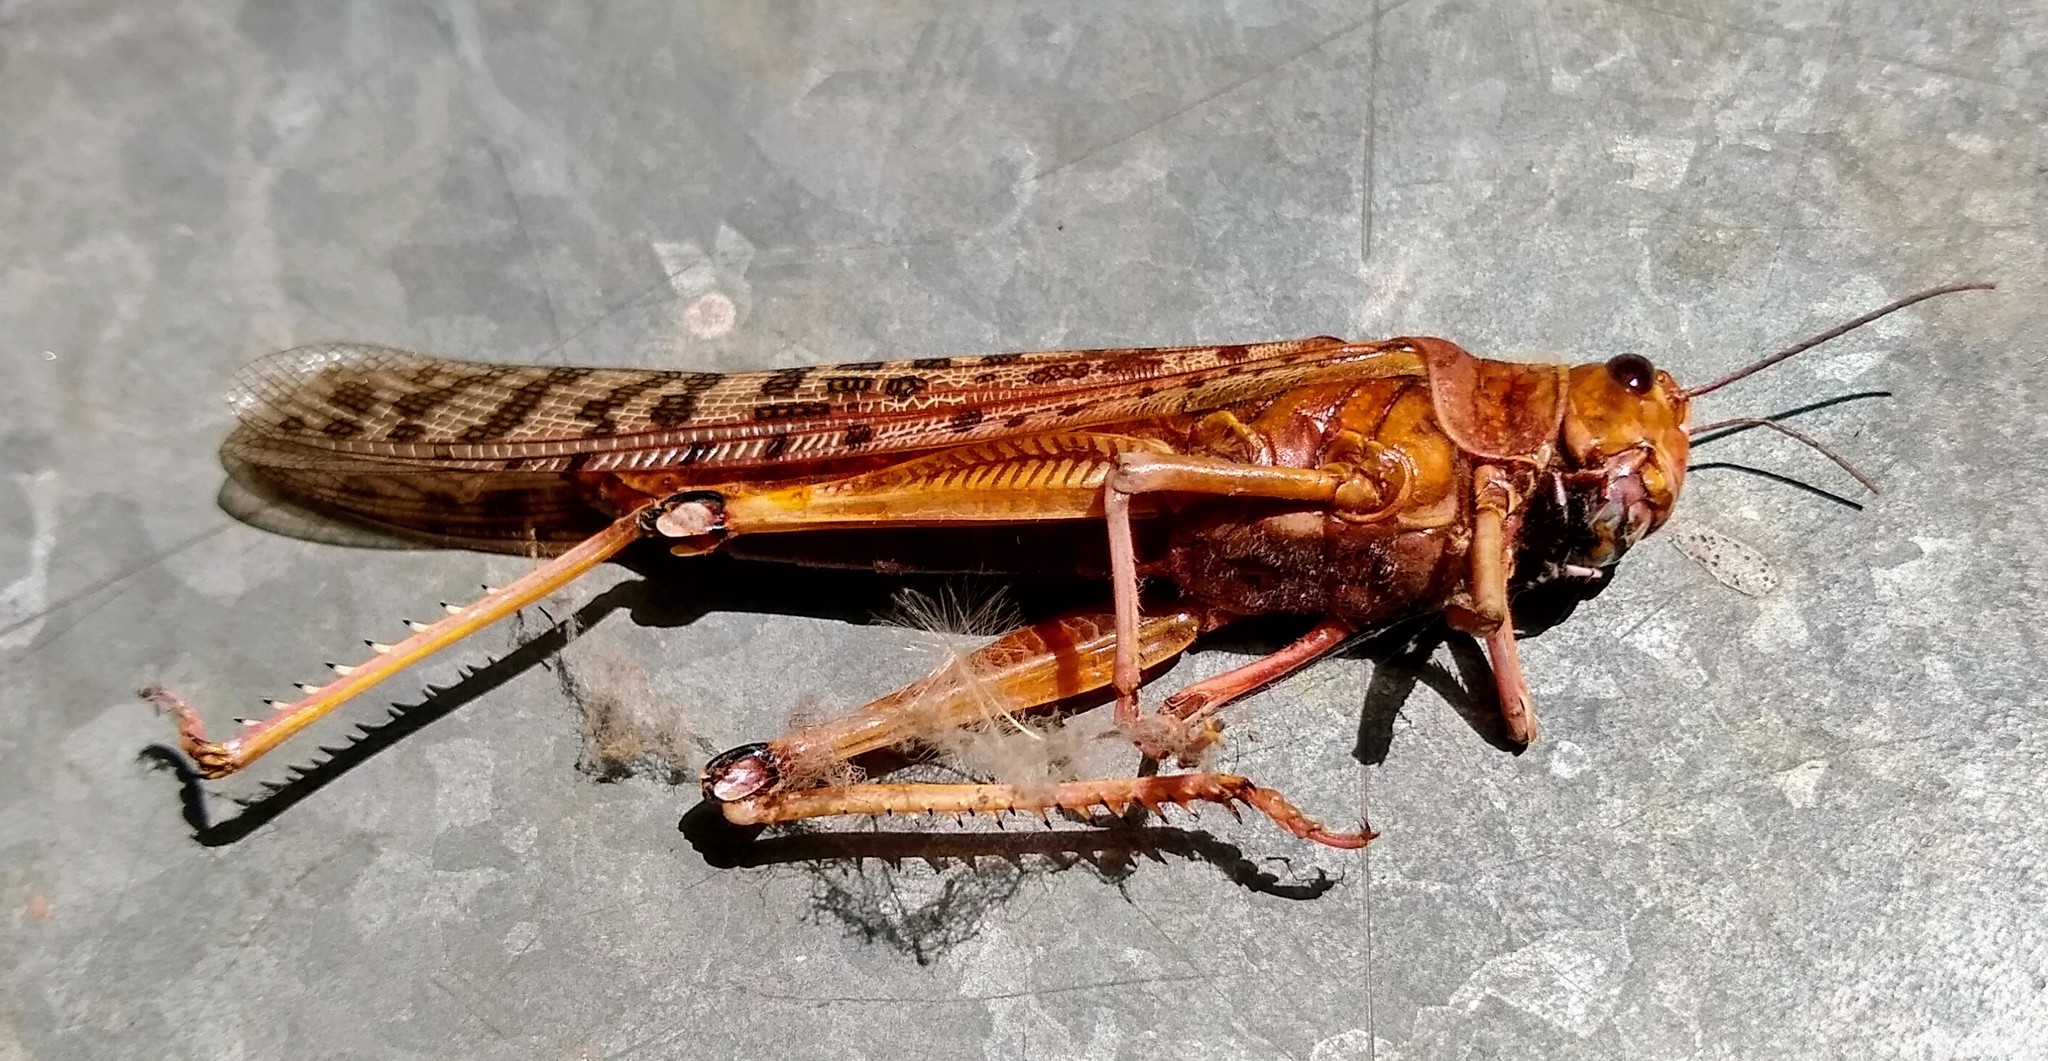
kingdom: Animalia
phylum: Arthropoda
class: Insecta
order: Orthoptera
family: Acrididae
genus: Schistocerca
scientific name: Schistocerca gregaria
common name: Desert locust
